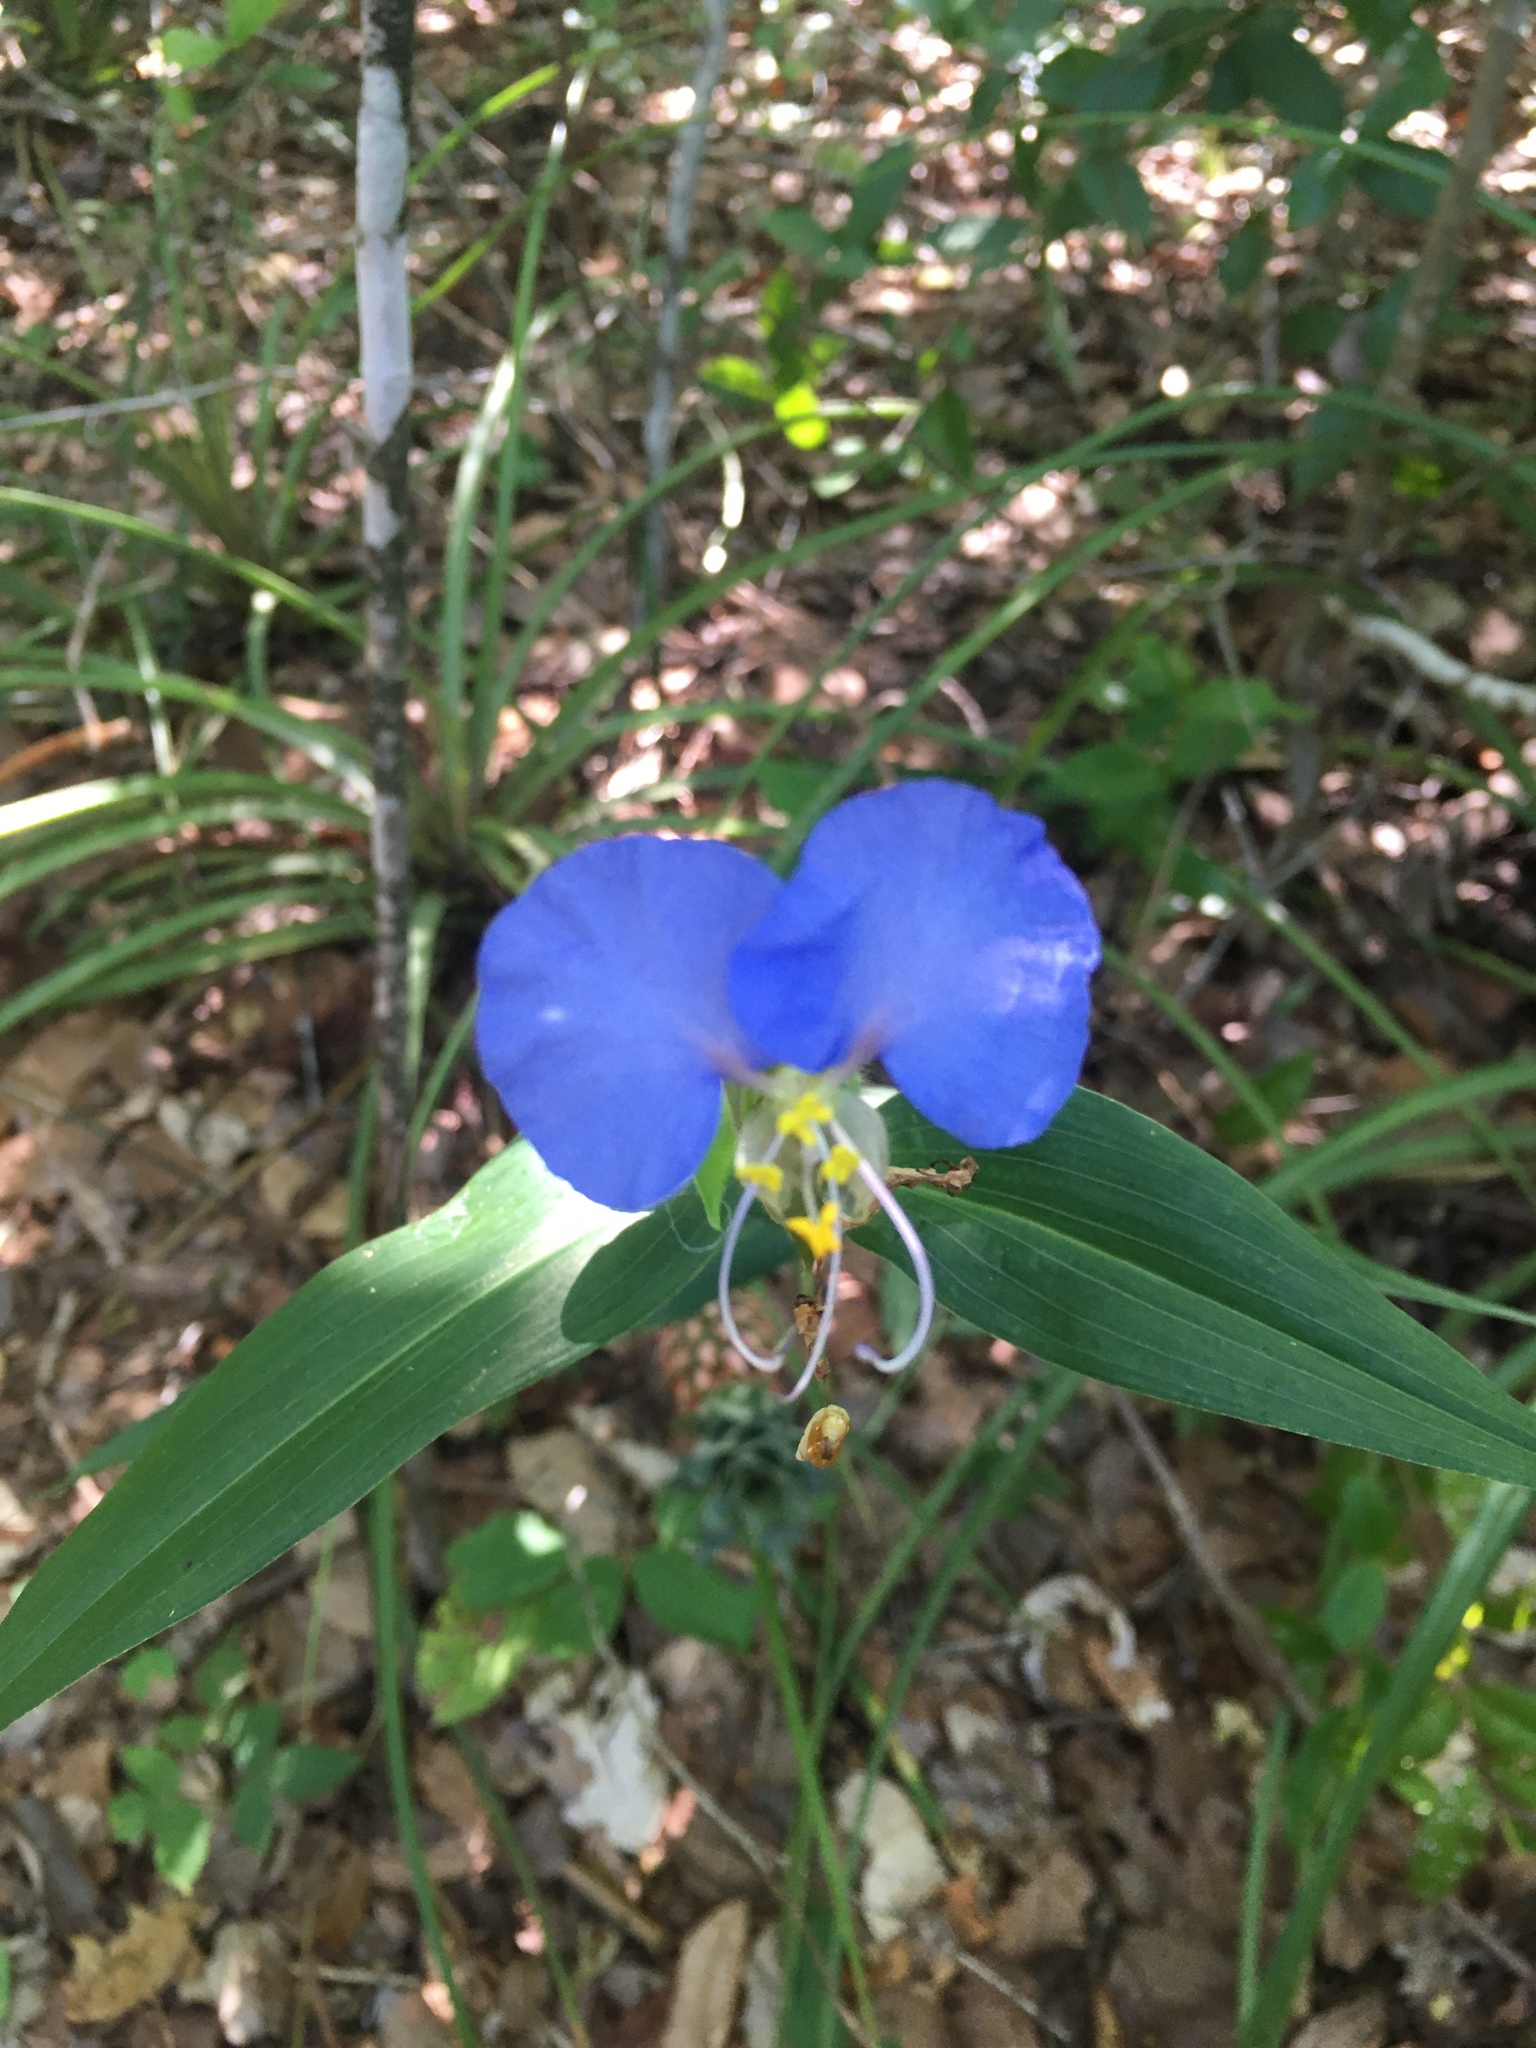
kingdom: Plantae
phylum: Tracheophyta
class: Liliopsida
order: Commelinales
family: Commelinaceae
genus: Commelina
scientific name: Commelina erecta
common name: Blousel blommetjie
